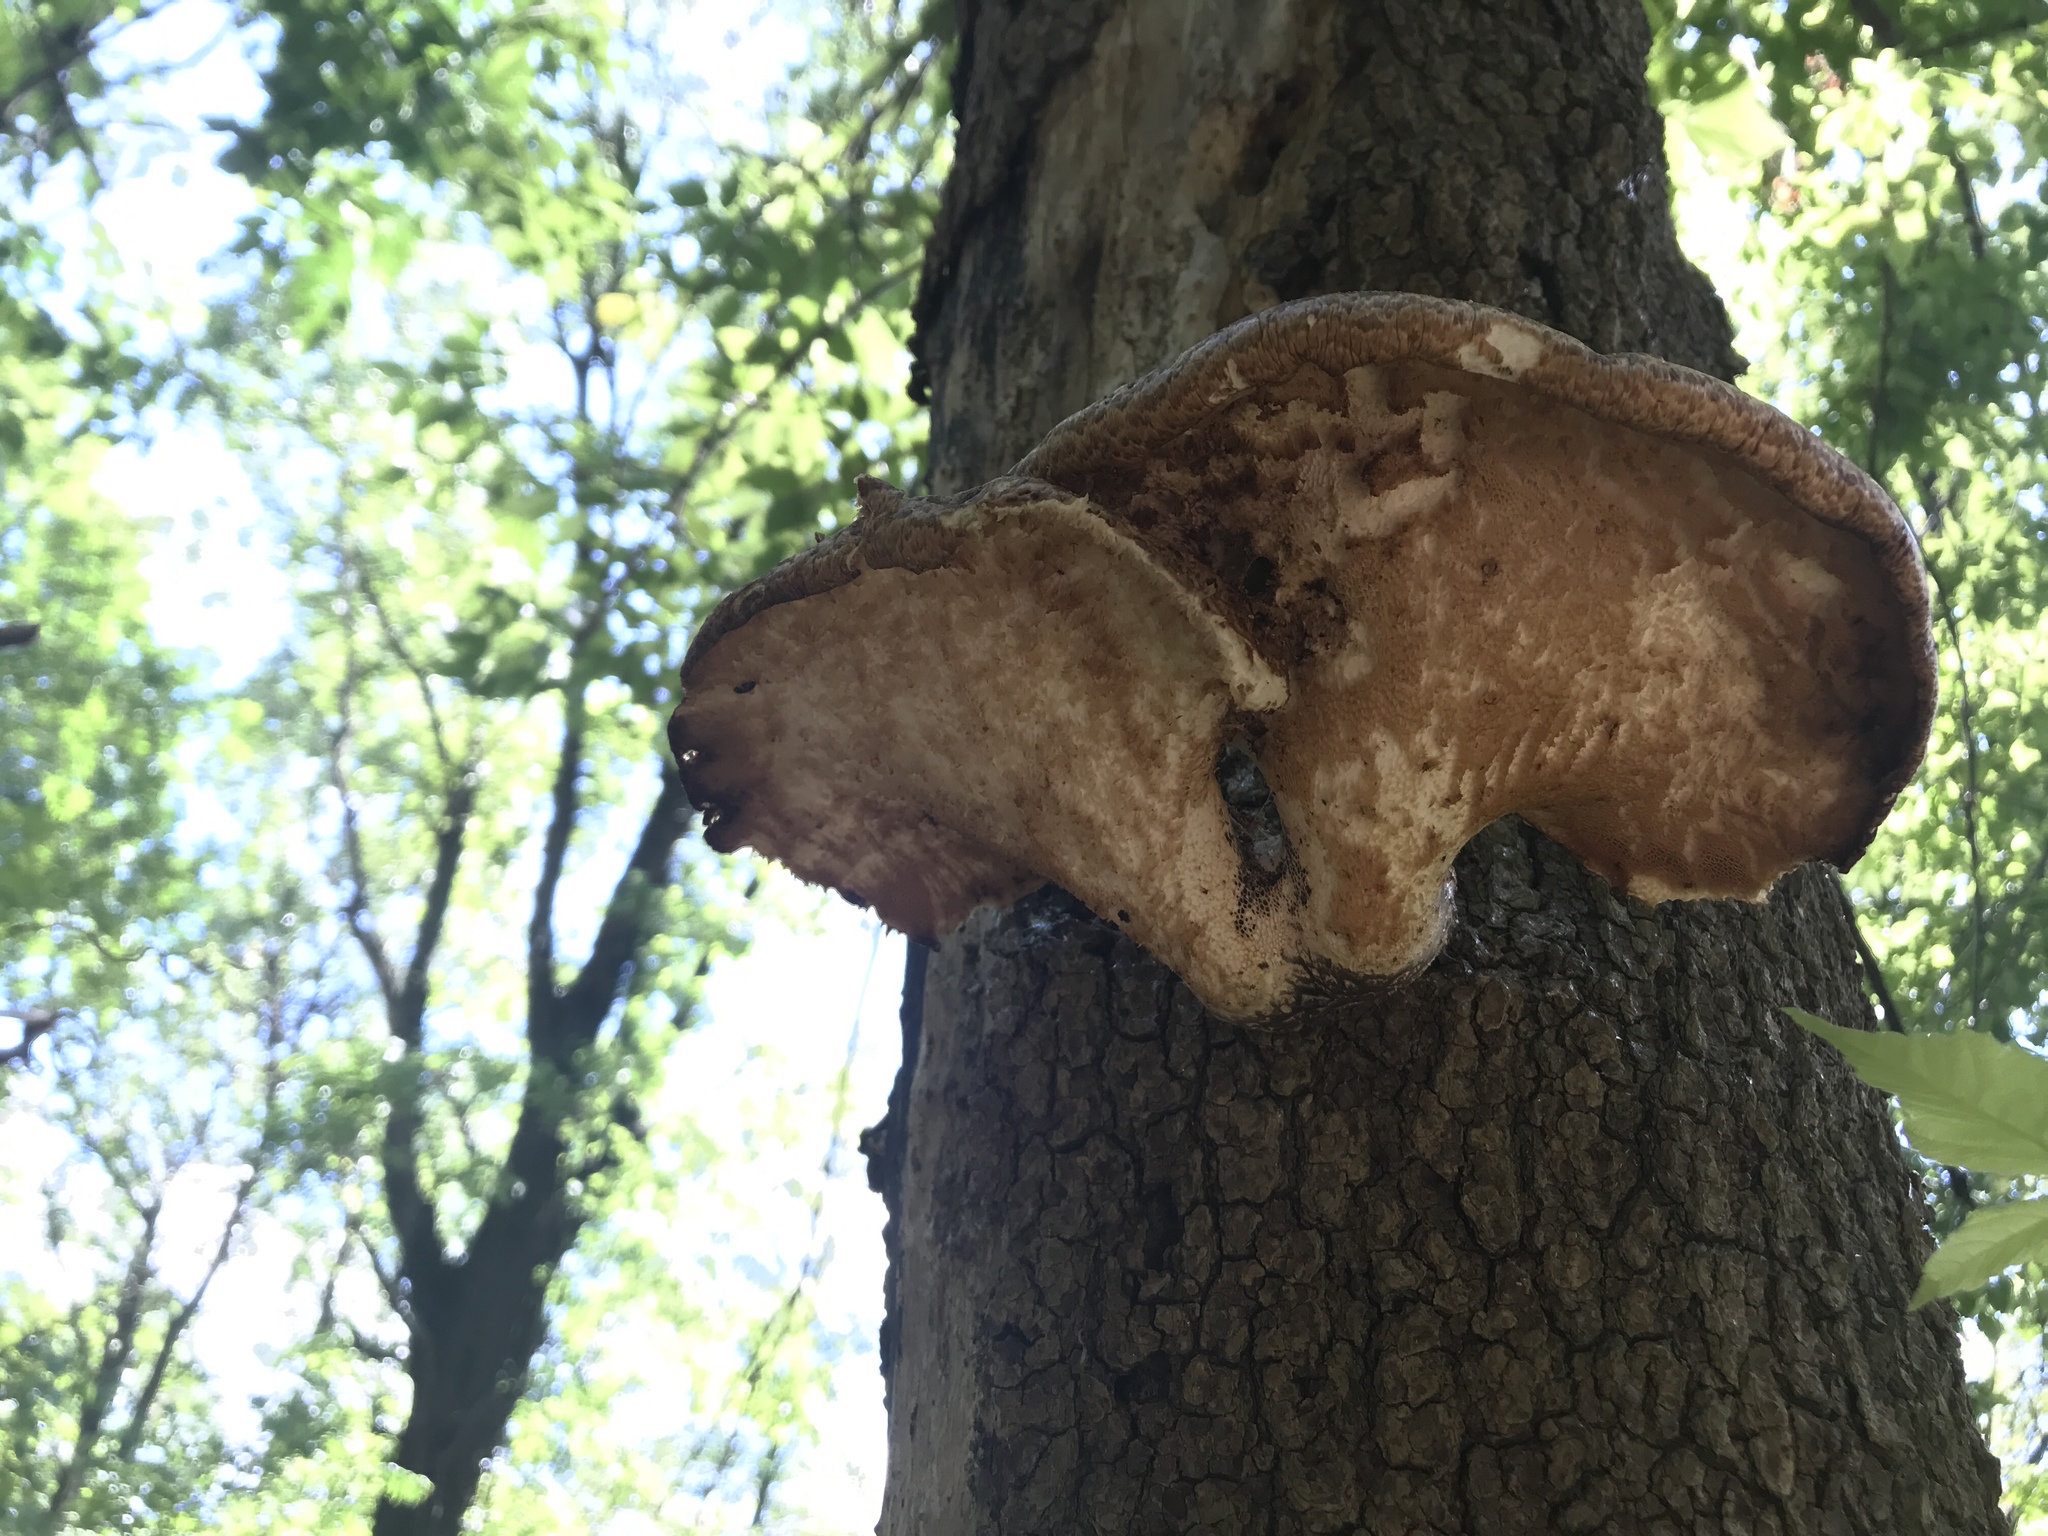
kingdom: Fungi
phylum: Basidiomycota
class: Agaricomycetes
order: Polyporales
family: Polyporaceae
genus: Cerioporus
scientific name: Cerioporus squamosus
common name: Dryad's saddle
